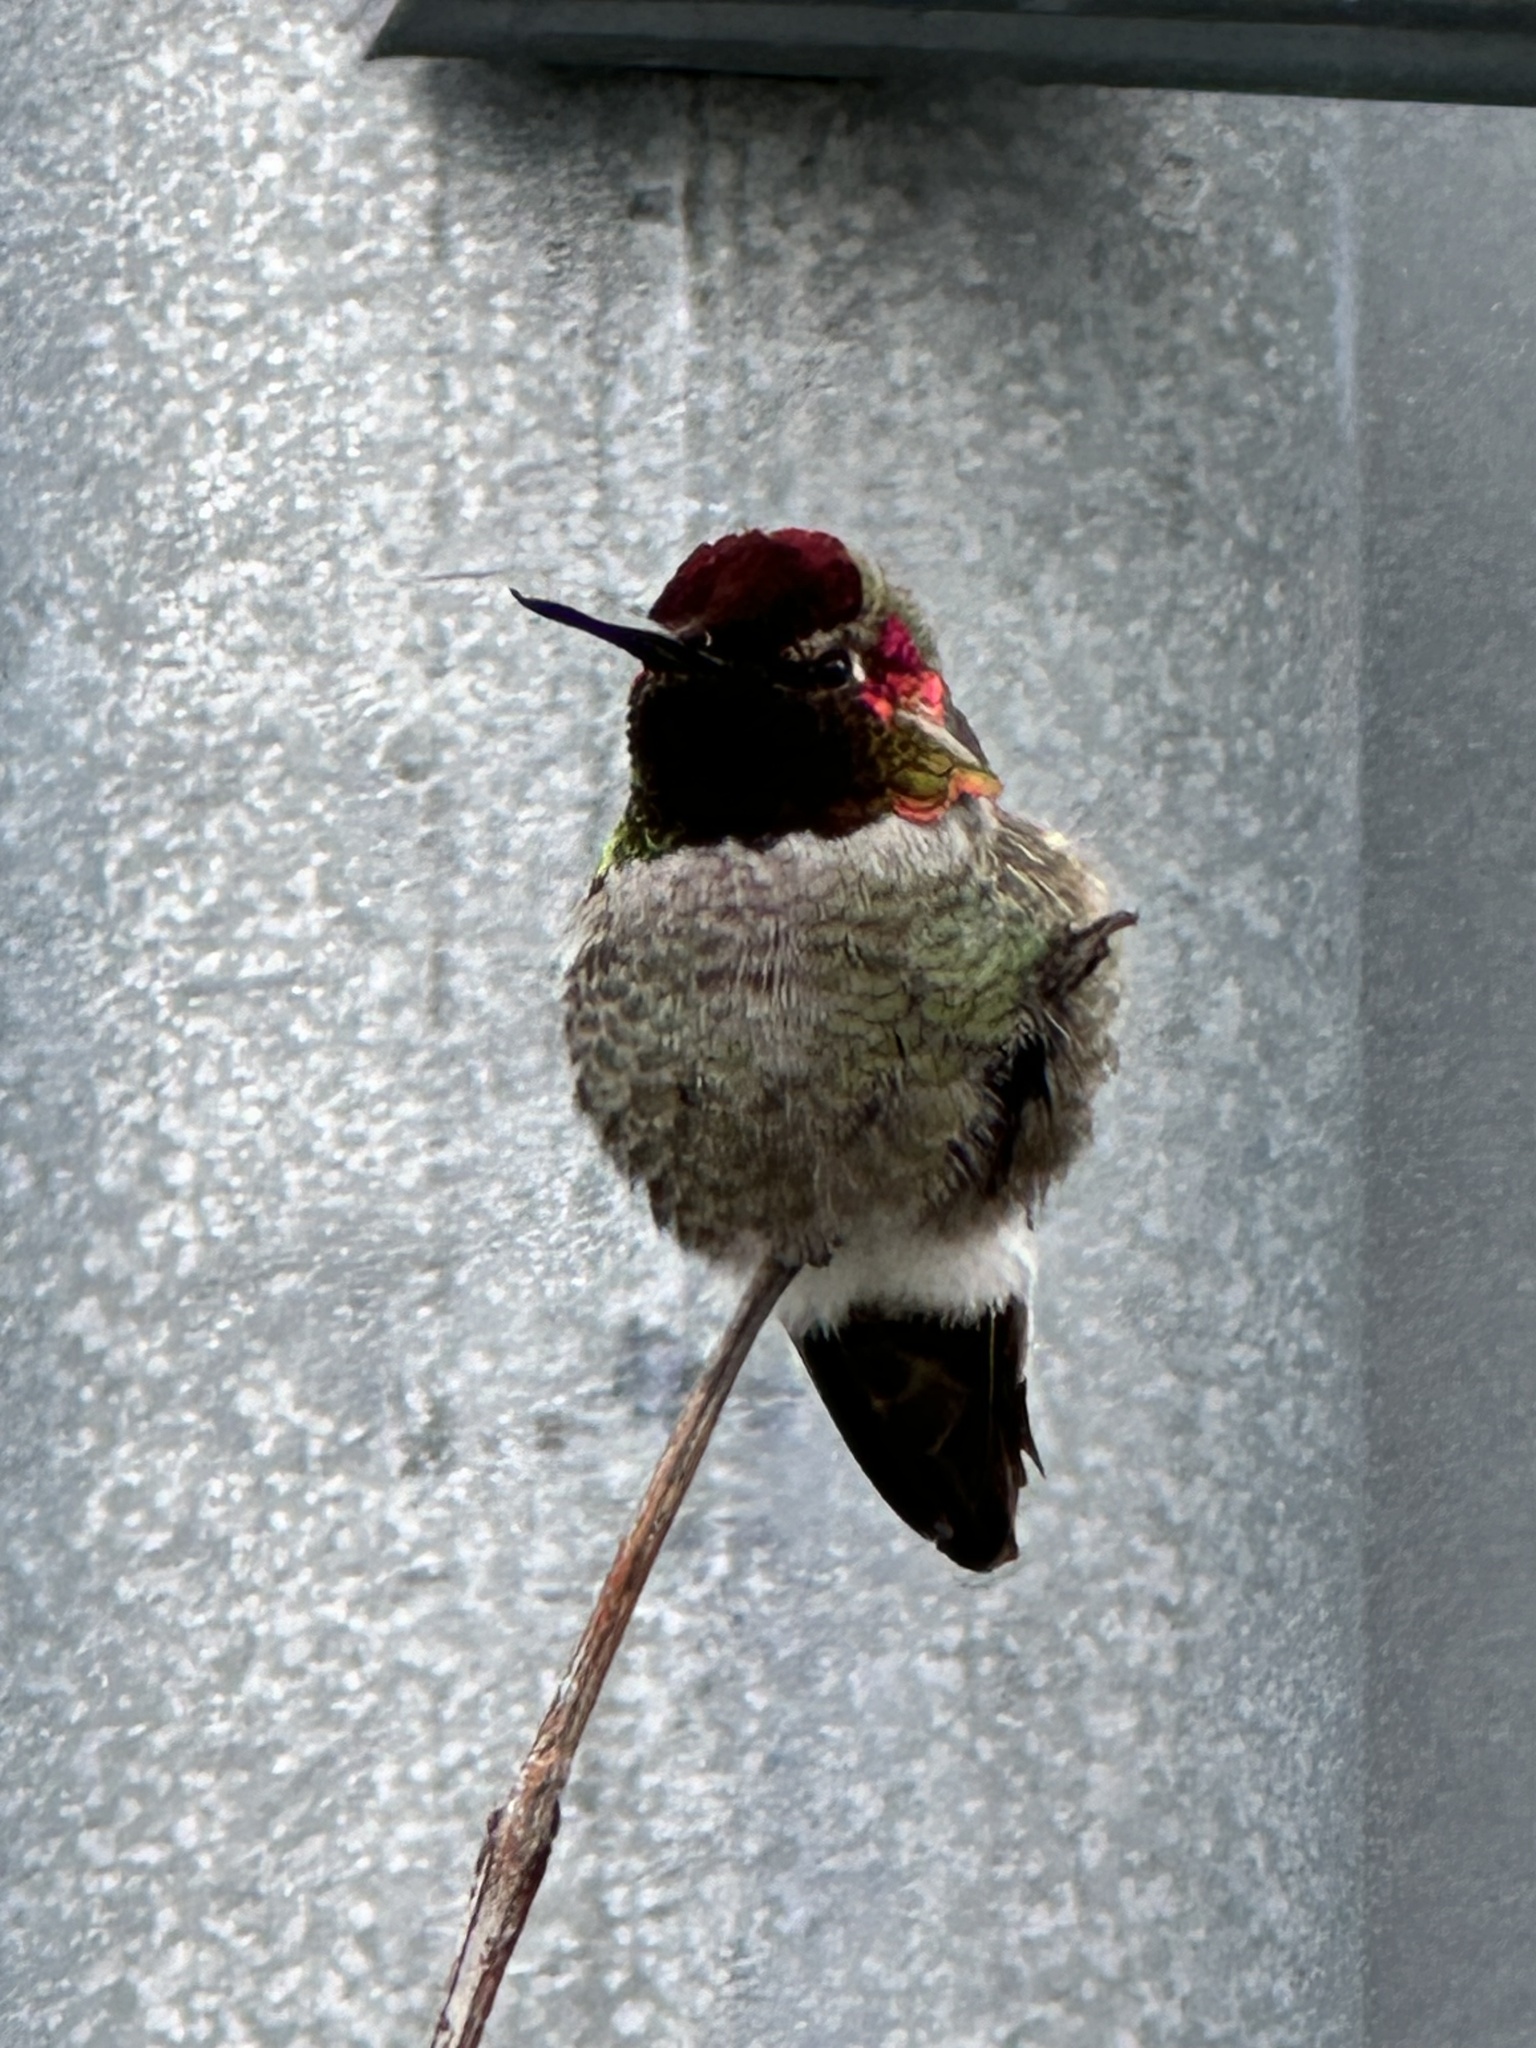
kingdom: Animalia
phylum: Chordata
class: Aves
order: Apodiformes
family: Trochilidae
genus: Calypte
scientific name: Calypte anna
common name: Anna's hummingbird
